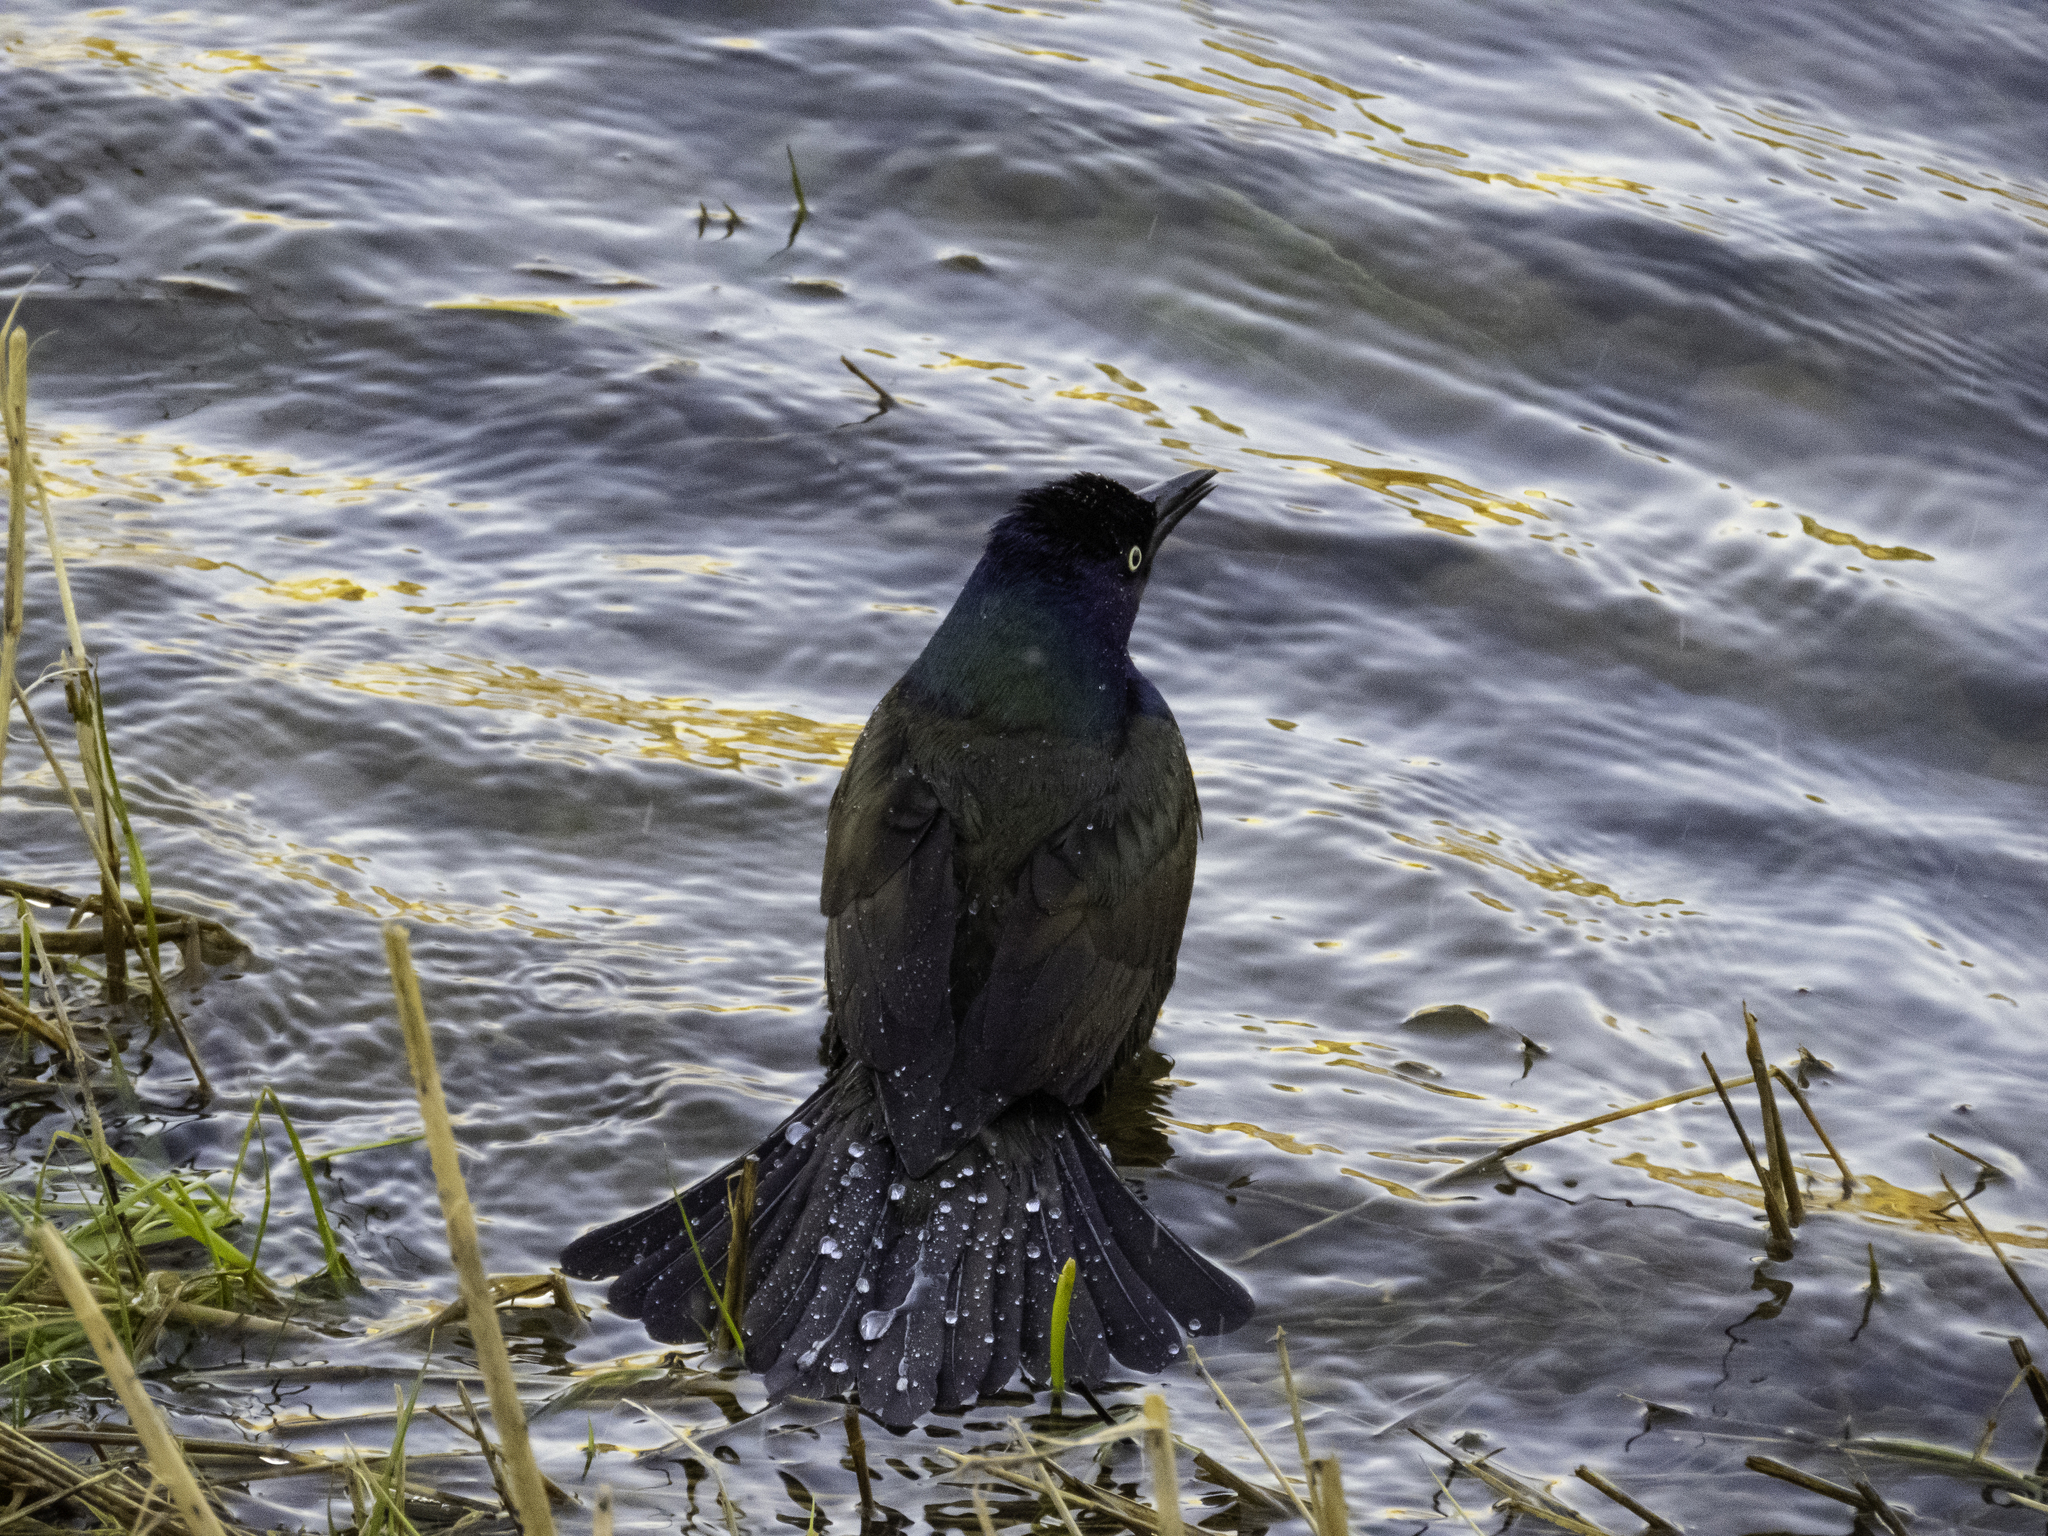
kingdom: Animalia
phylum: Chordata
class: Aves
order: Passeriformes
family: Icteridae
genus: Quiscalus
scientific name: Quiscalus quiscula
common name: Common grackle
